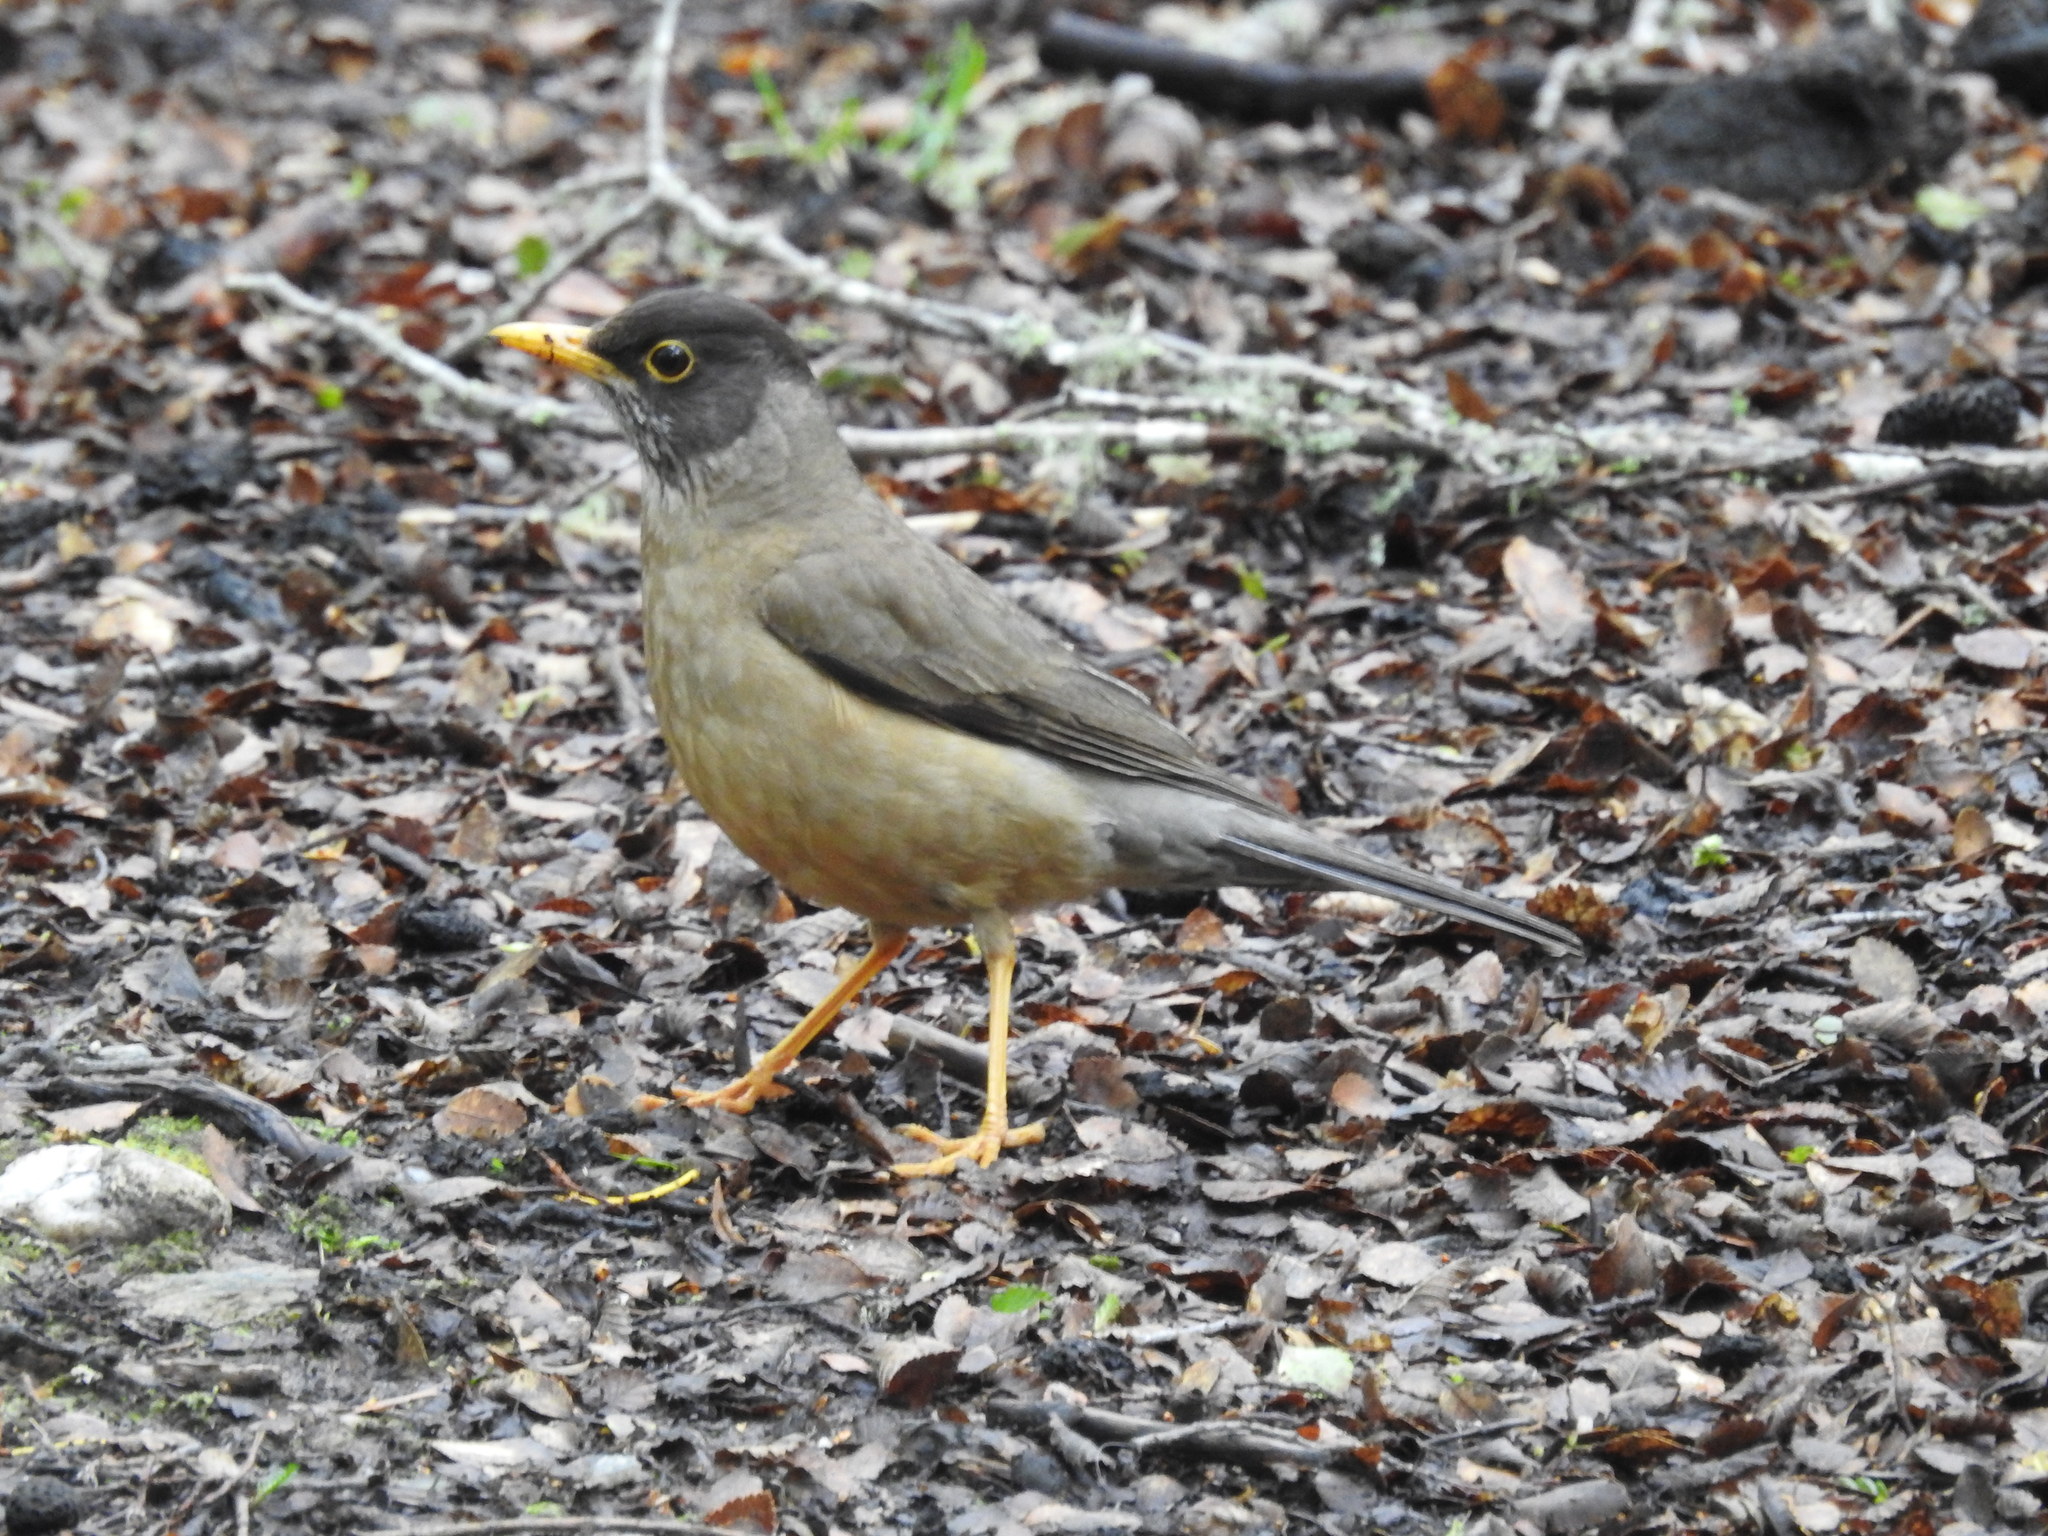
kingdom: Animalia
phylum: Chordata
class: Aves
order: Passeriformes
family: Turdidae
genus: Turdus
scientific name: Turdus falcklandii
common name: Austral thrush
